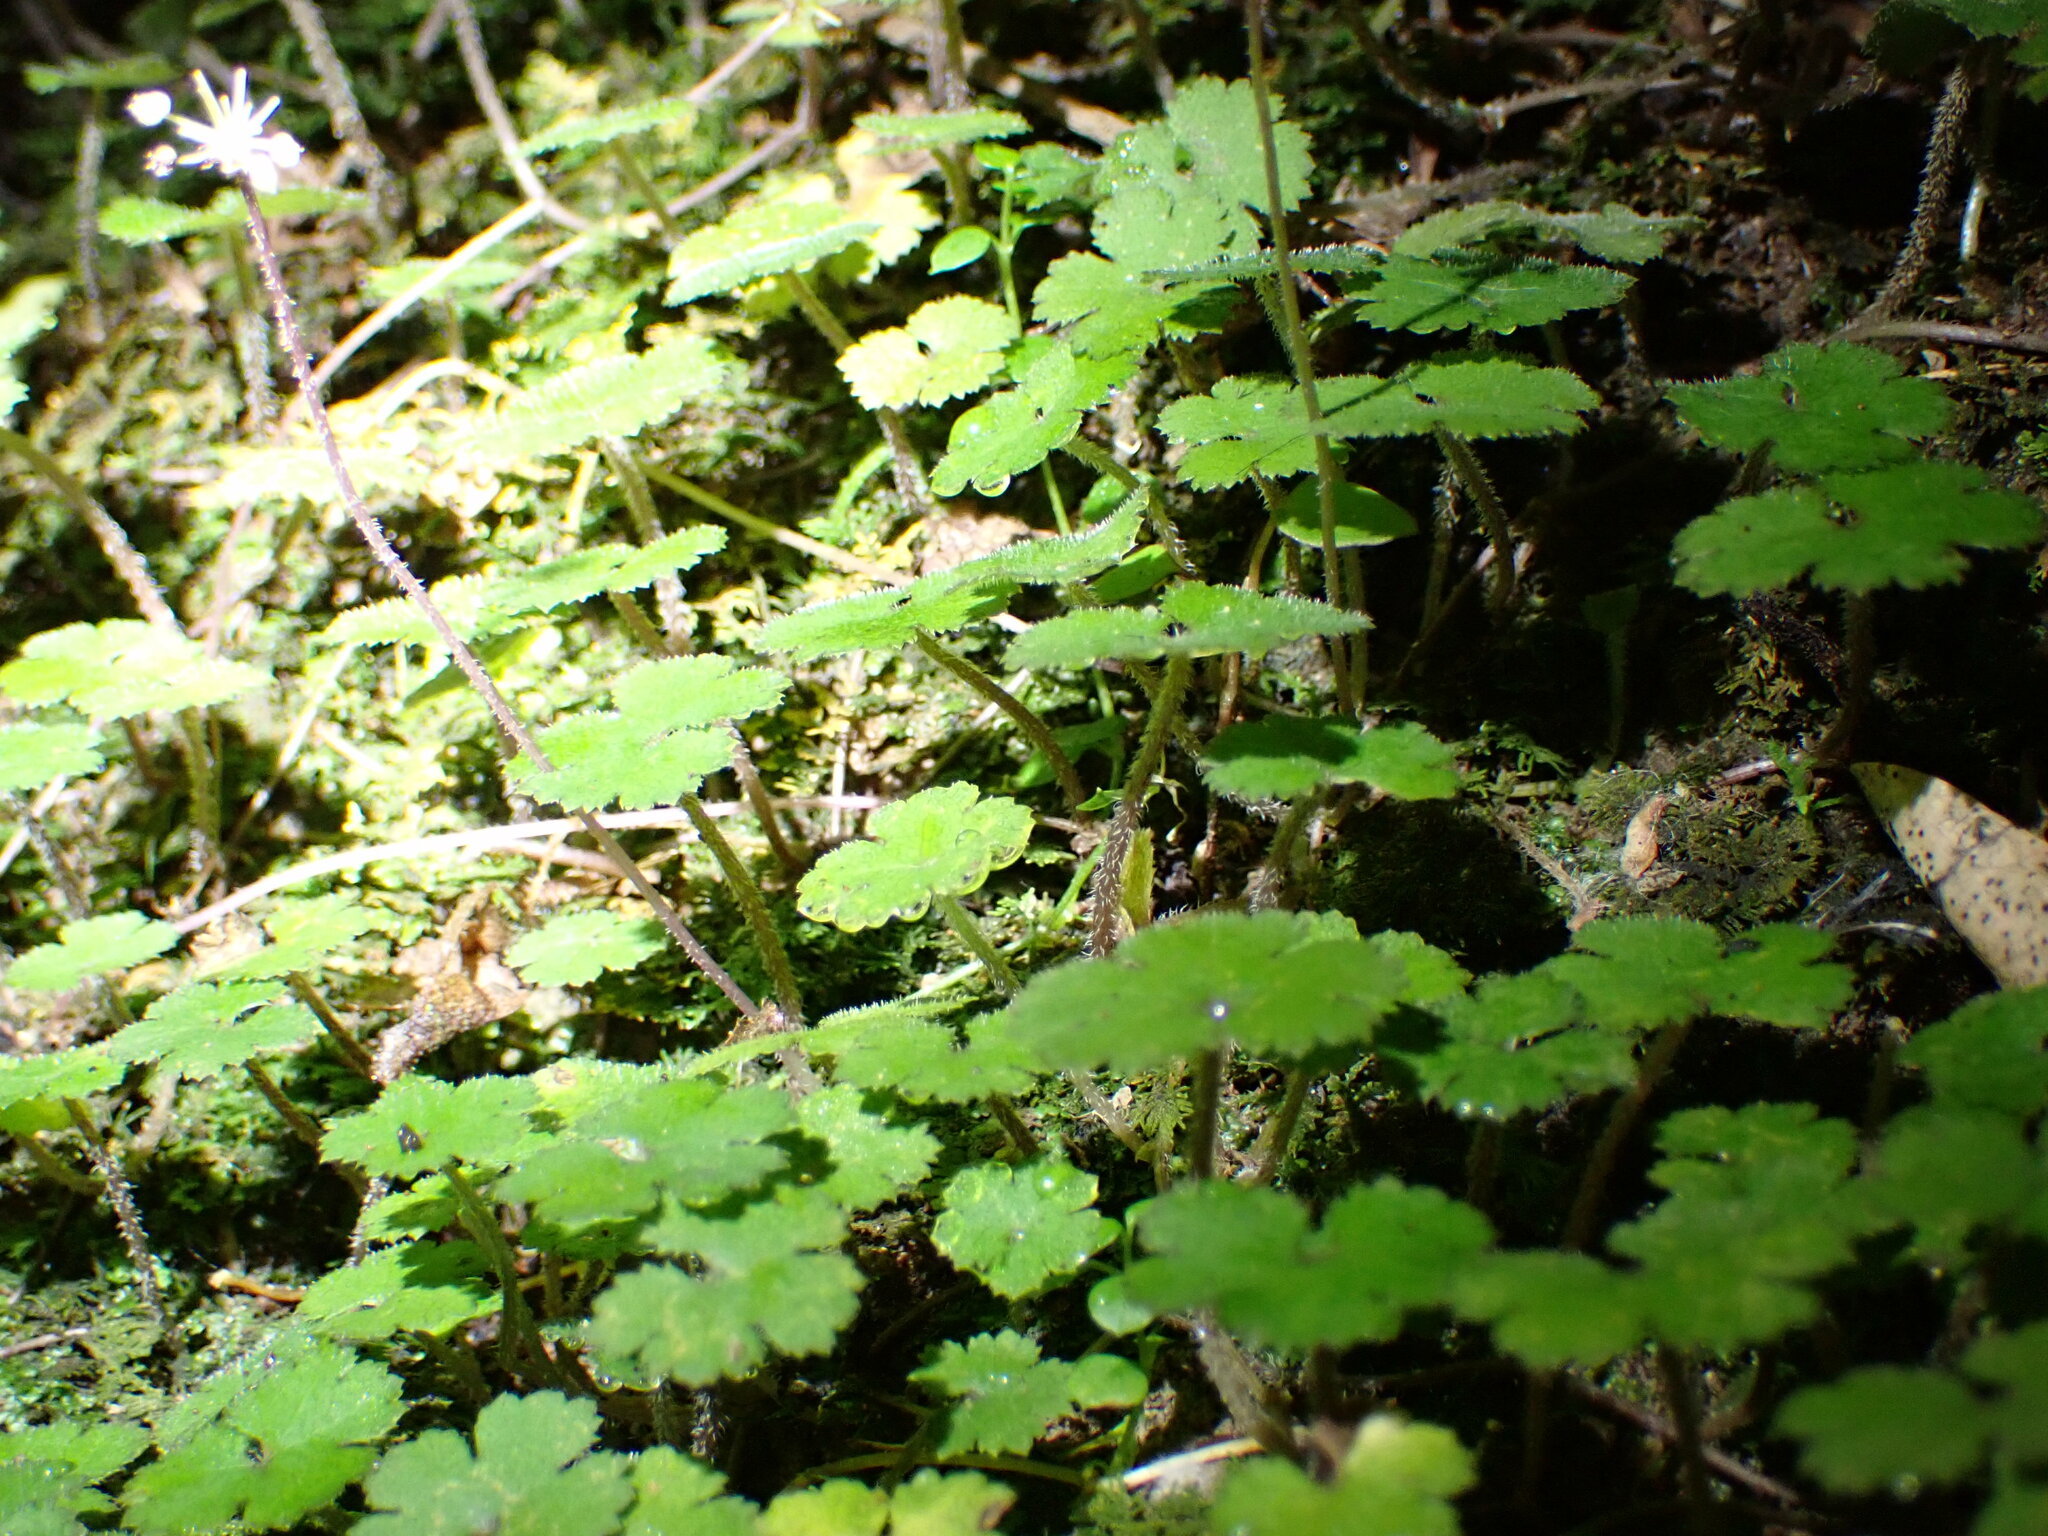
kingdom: Plantae
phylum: Tracheophyta
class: Magnoliopsida
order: Apiales
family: Araliaceae
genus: Hydrocotyle
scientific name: Hydrocotyle elongata
